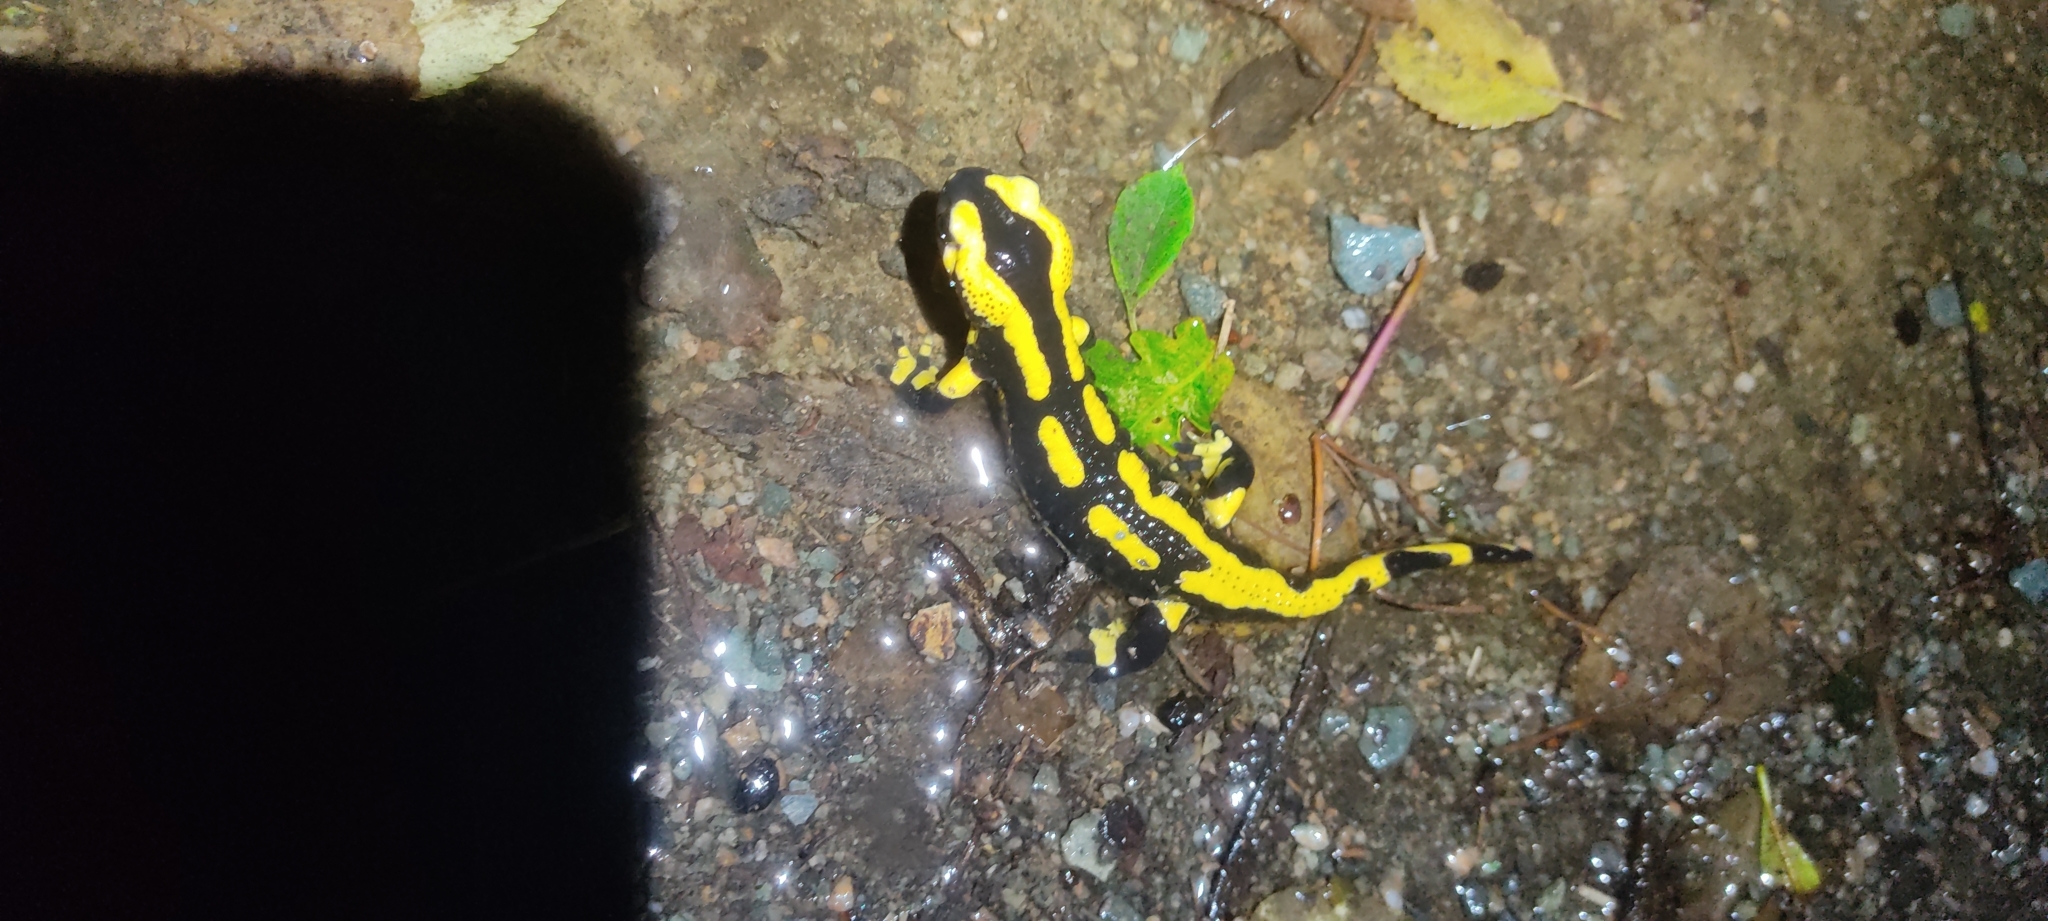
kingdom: Animalia
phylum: Chordata
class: Amphibia
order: Caudata
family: Salamandridae
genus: Salamandra
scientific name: Salamandra salamandra
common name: Fire salamander
